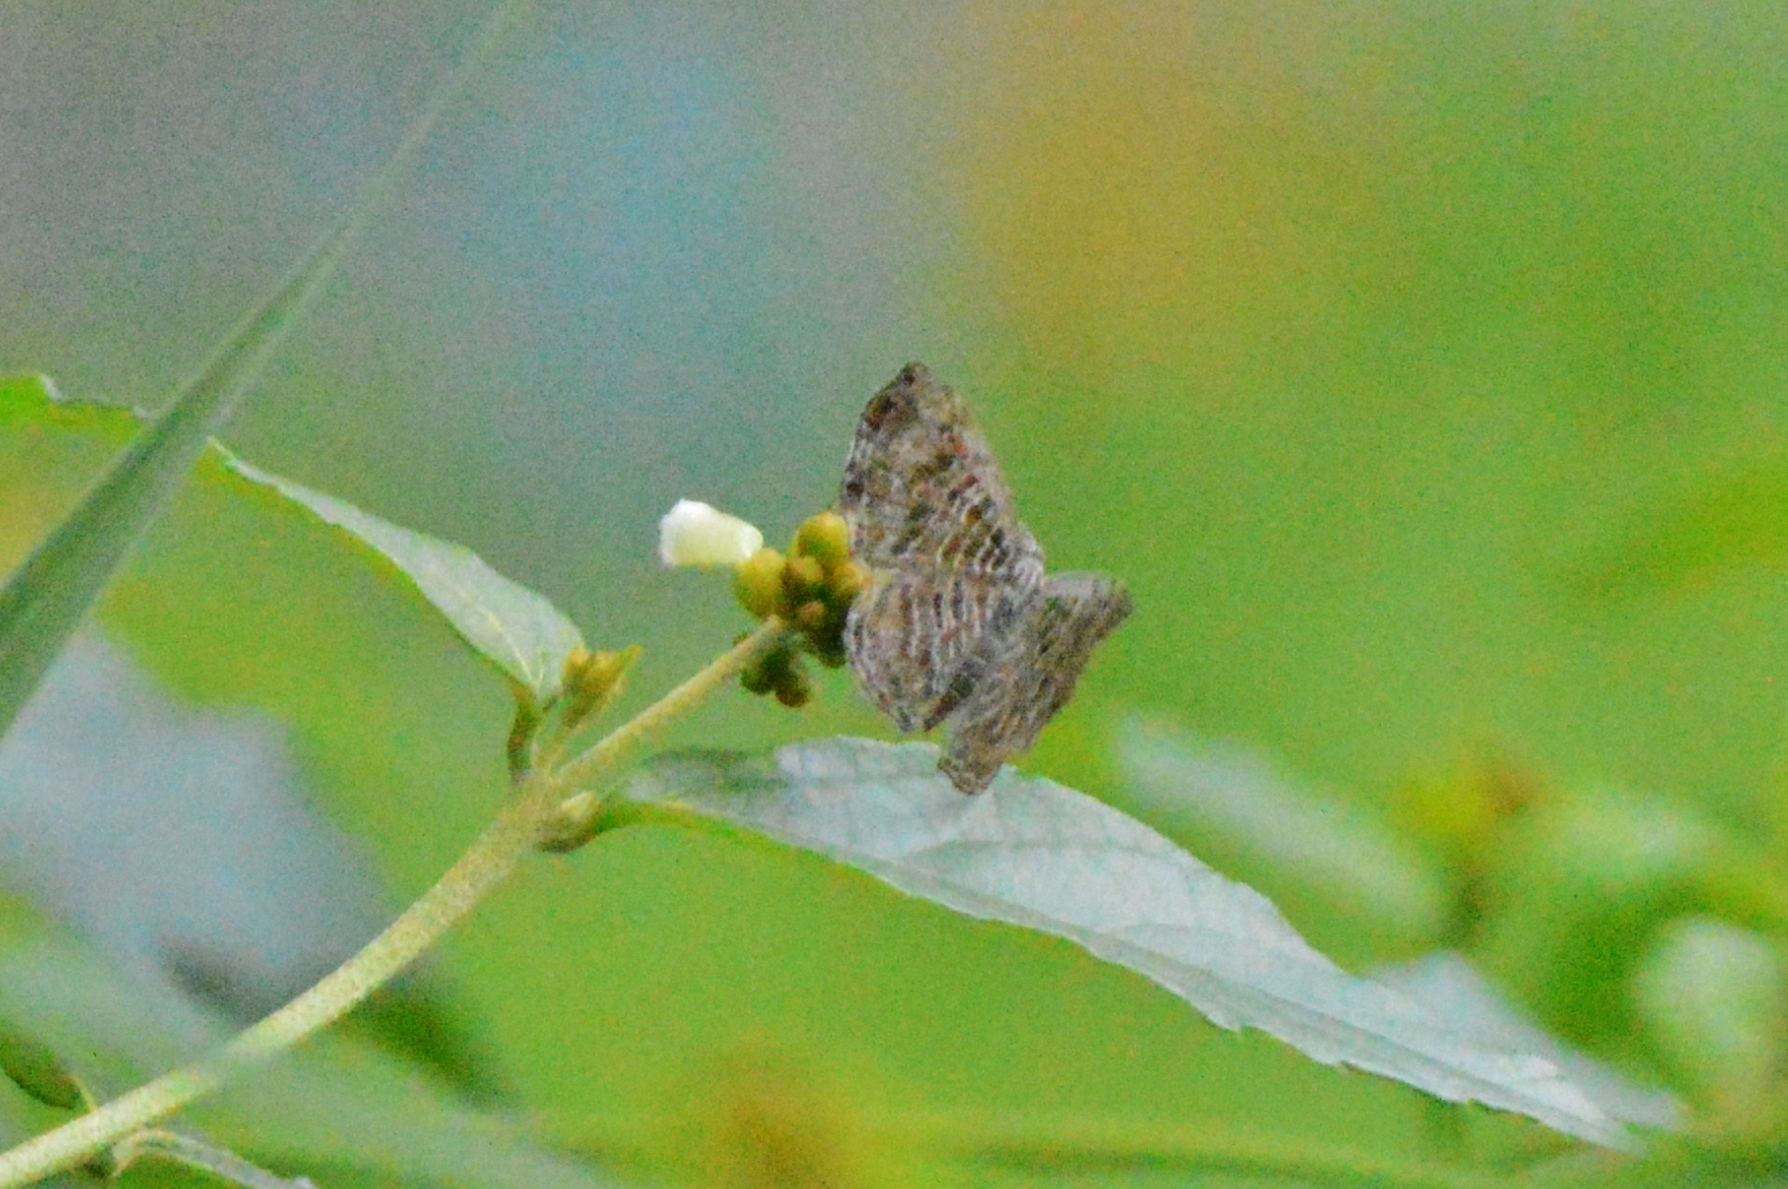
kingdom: Animalia
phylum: Arthropoda
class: Insecta
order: Lepidoptera
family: Riodinidae
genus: Catocyclotis
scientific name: Catocyclotis
